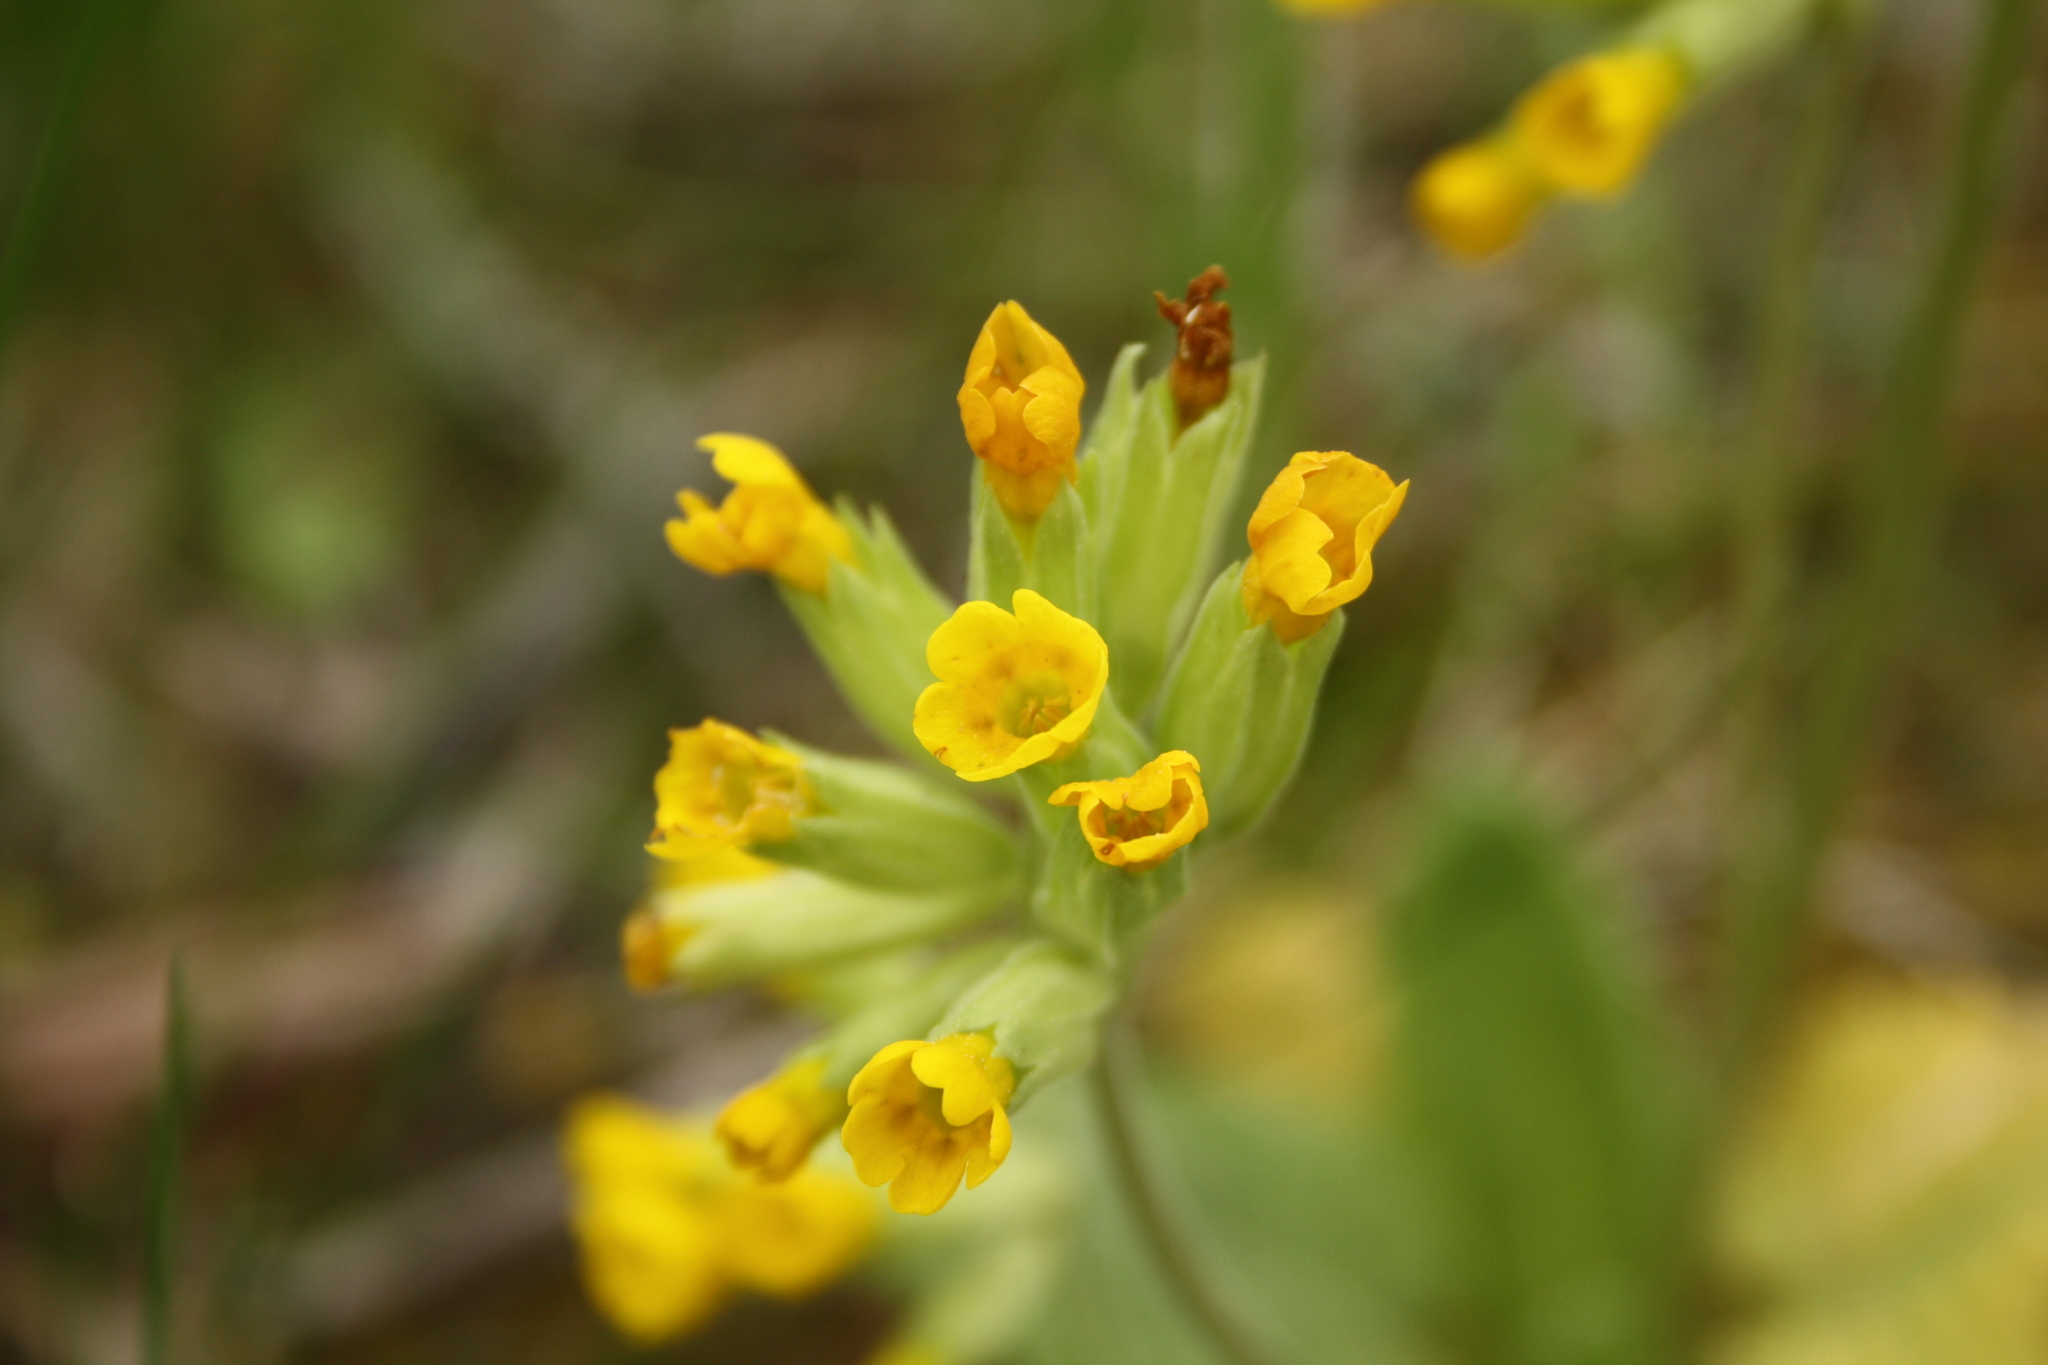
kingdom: Plantae
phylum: Tracheophyta
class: Magnoliopsida
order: Ericales
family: Primulaceae
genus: Primula
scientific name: Primula veris
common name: Cowslip
